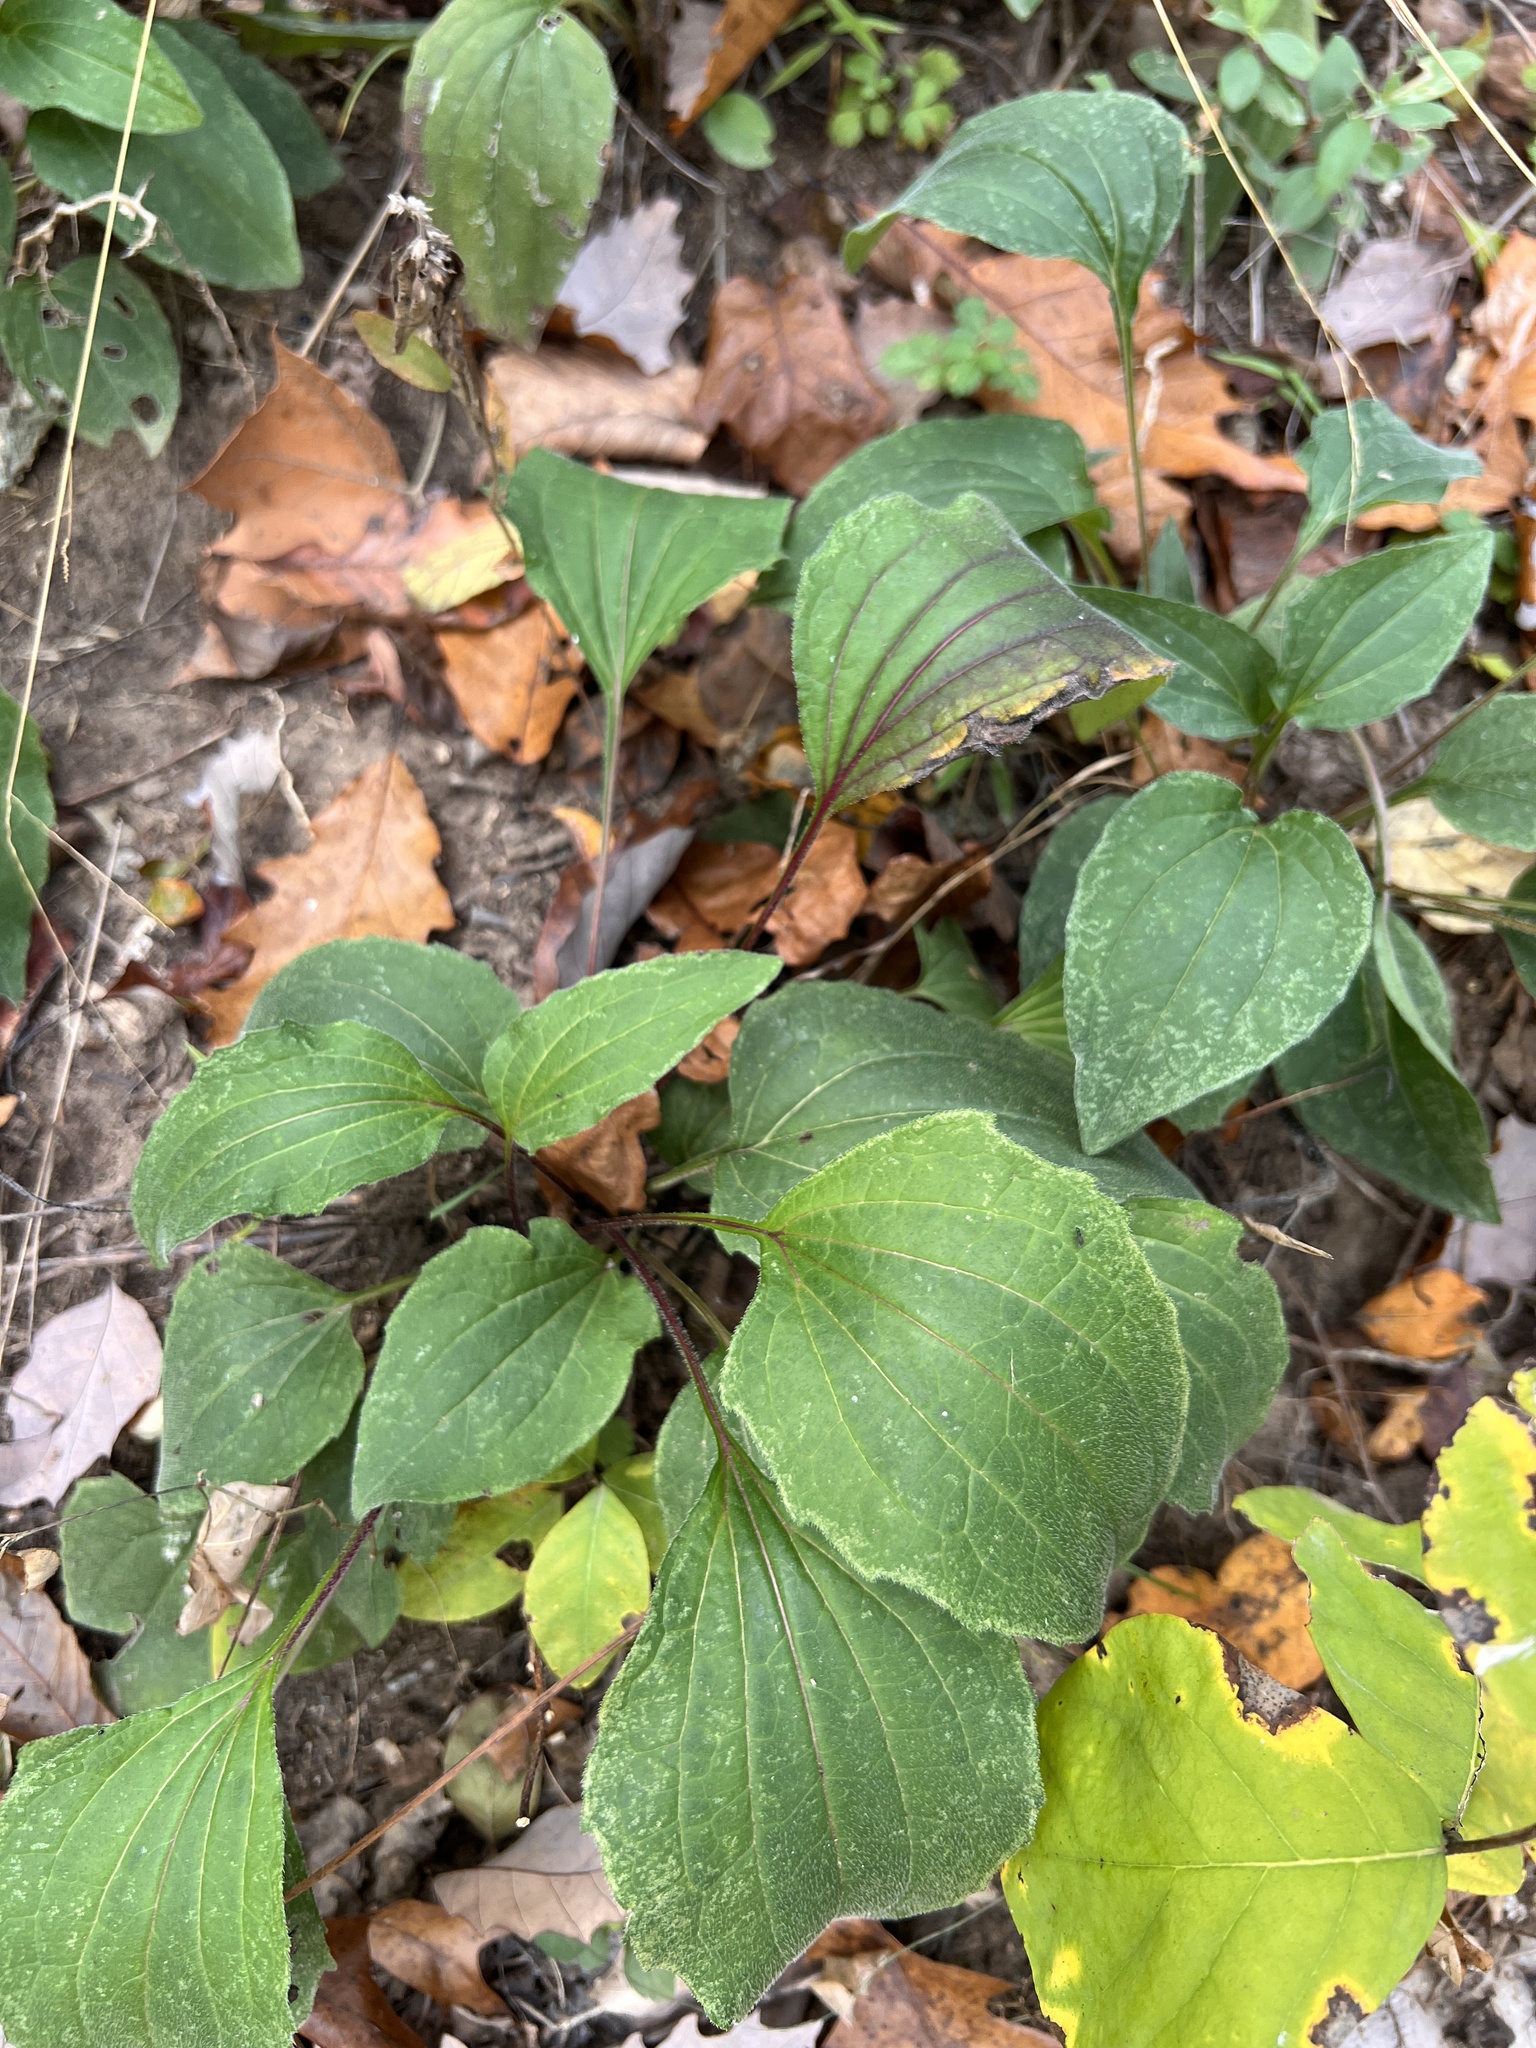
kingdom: Plantae
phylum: Tracheophyta
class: Magnoliopsida
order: Asterales
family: Asteraceae
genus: Echinacea
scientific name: Echinacea purpurea
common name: Broad-leaved purple coneflower
